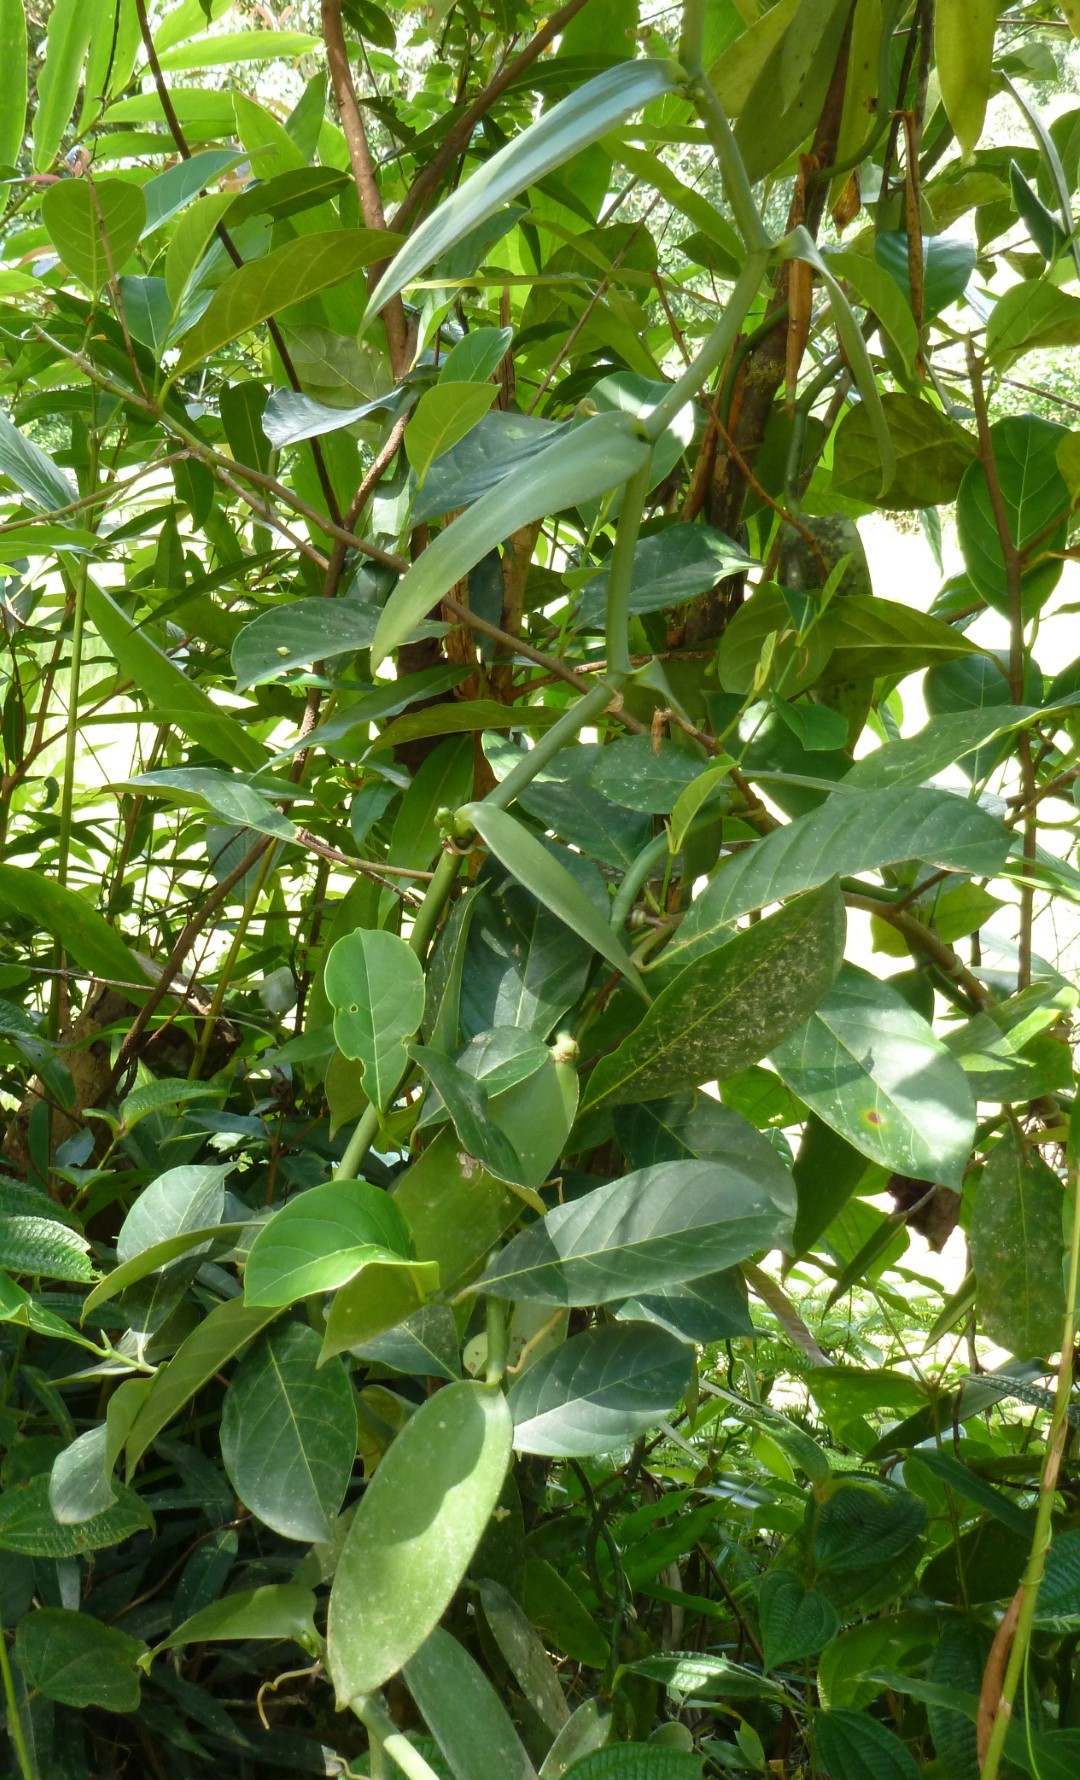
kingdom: Plantae
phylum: Tracheophyta
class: Liliopsida
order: Asparagales
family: Orchidaceae
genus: Vanilla
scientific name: Vanilla planifolia
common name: Vanilla
